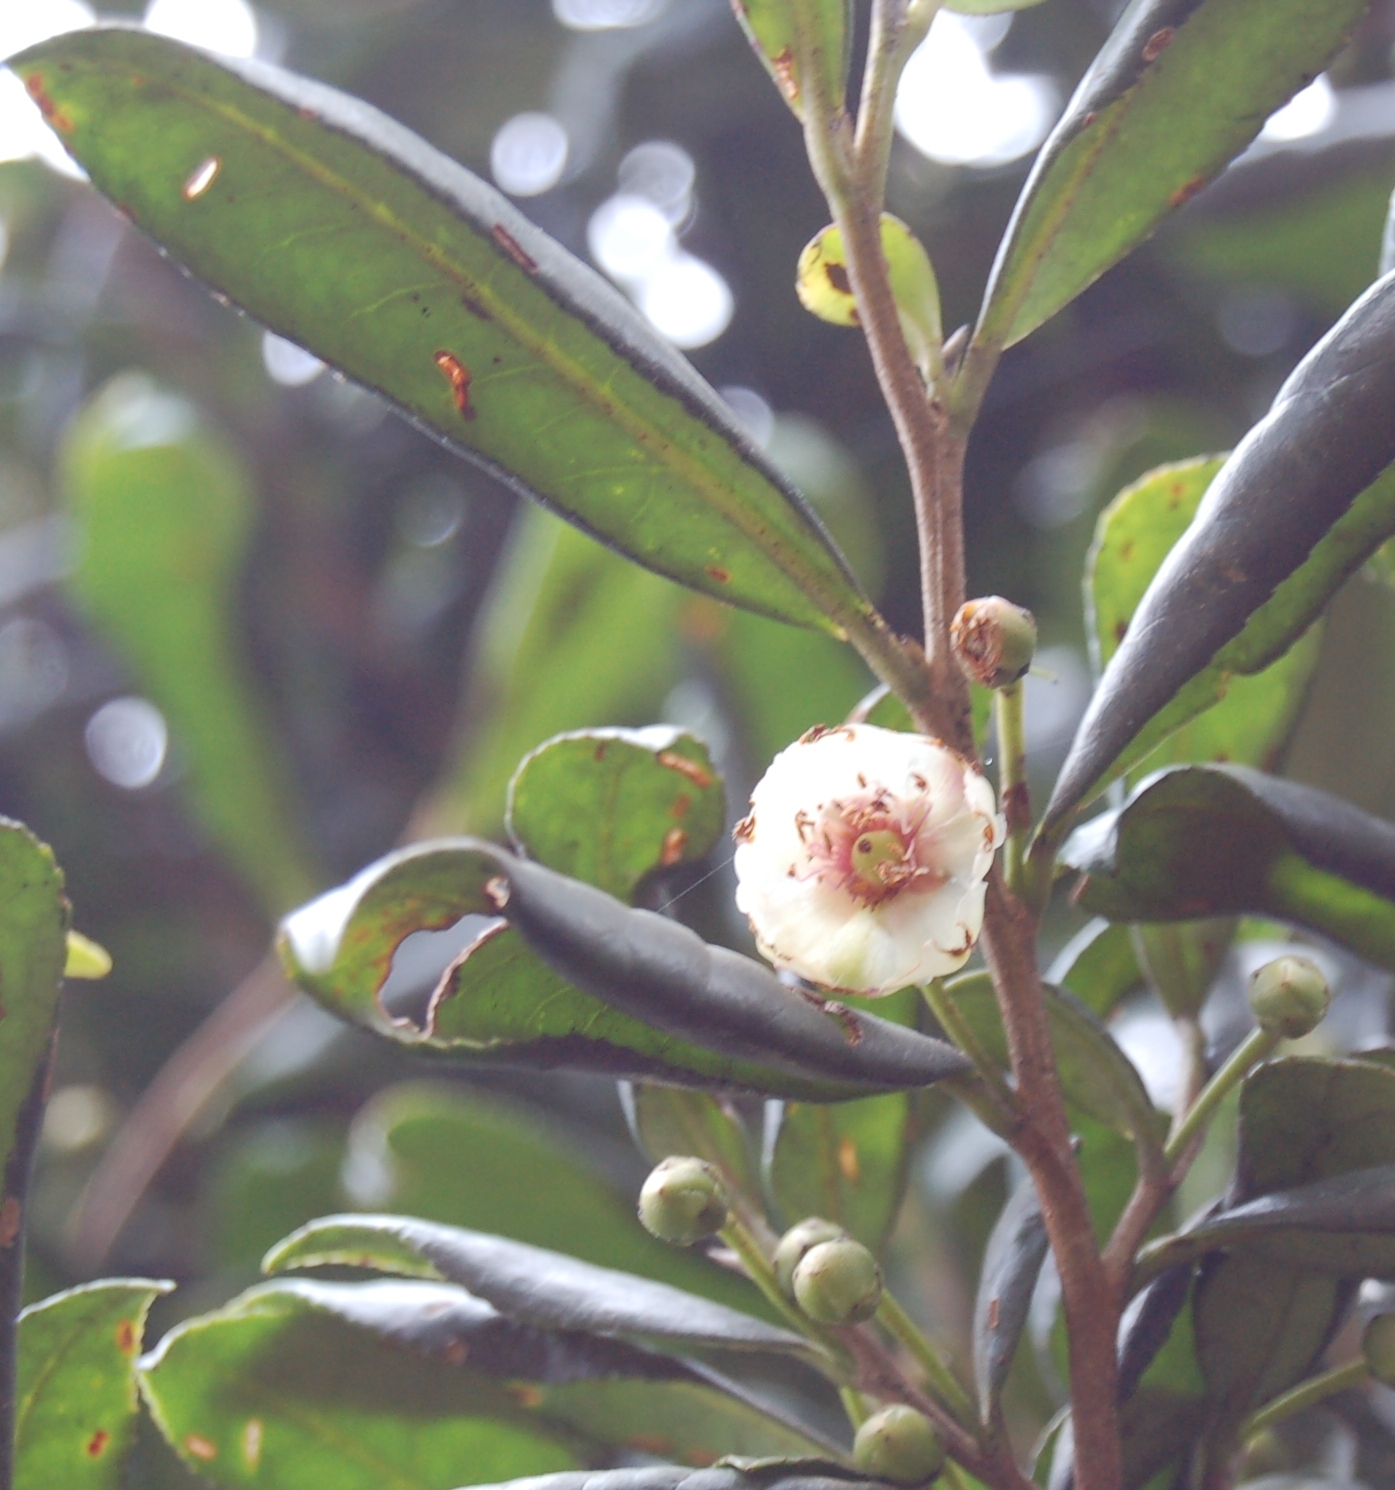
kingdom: Plantae
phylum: Tracheophyta
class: Magnoliopsida
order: Ericales
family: Pentaphylacaceae
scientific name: Pentaphylacaceae
